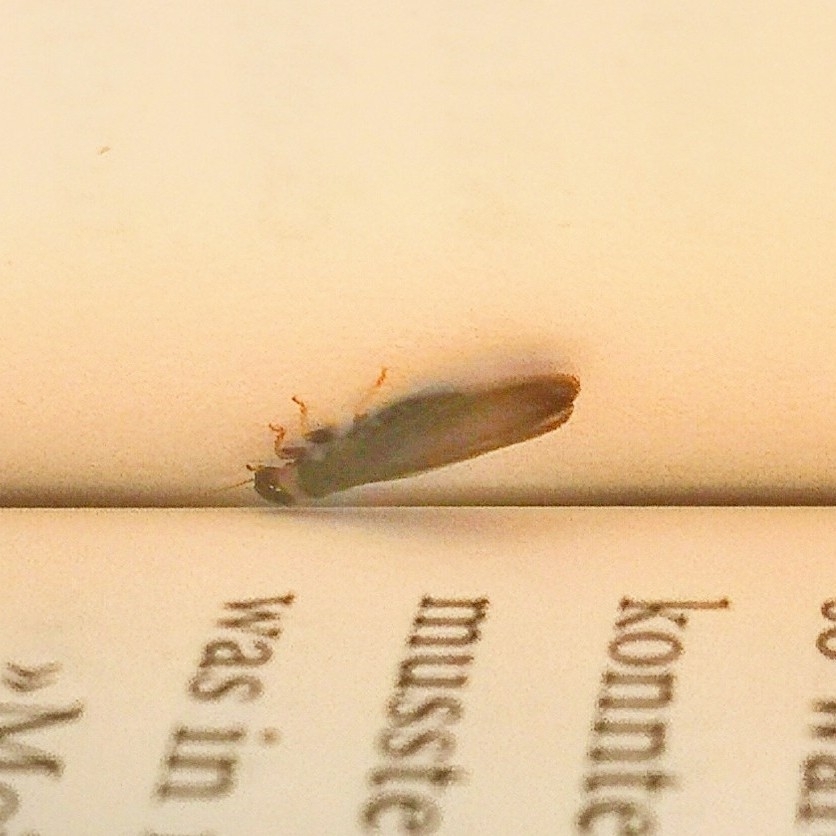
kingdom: Animalia
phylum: Arthropoda
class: Insecta
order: Blattodea
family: Kalotermitidae
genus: Kalotermes
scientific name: Kalotermes flavicollis
